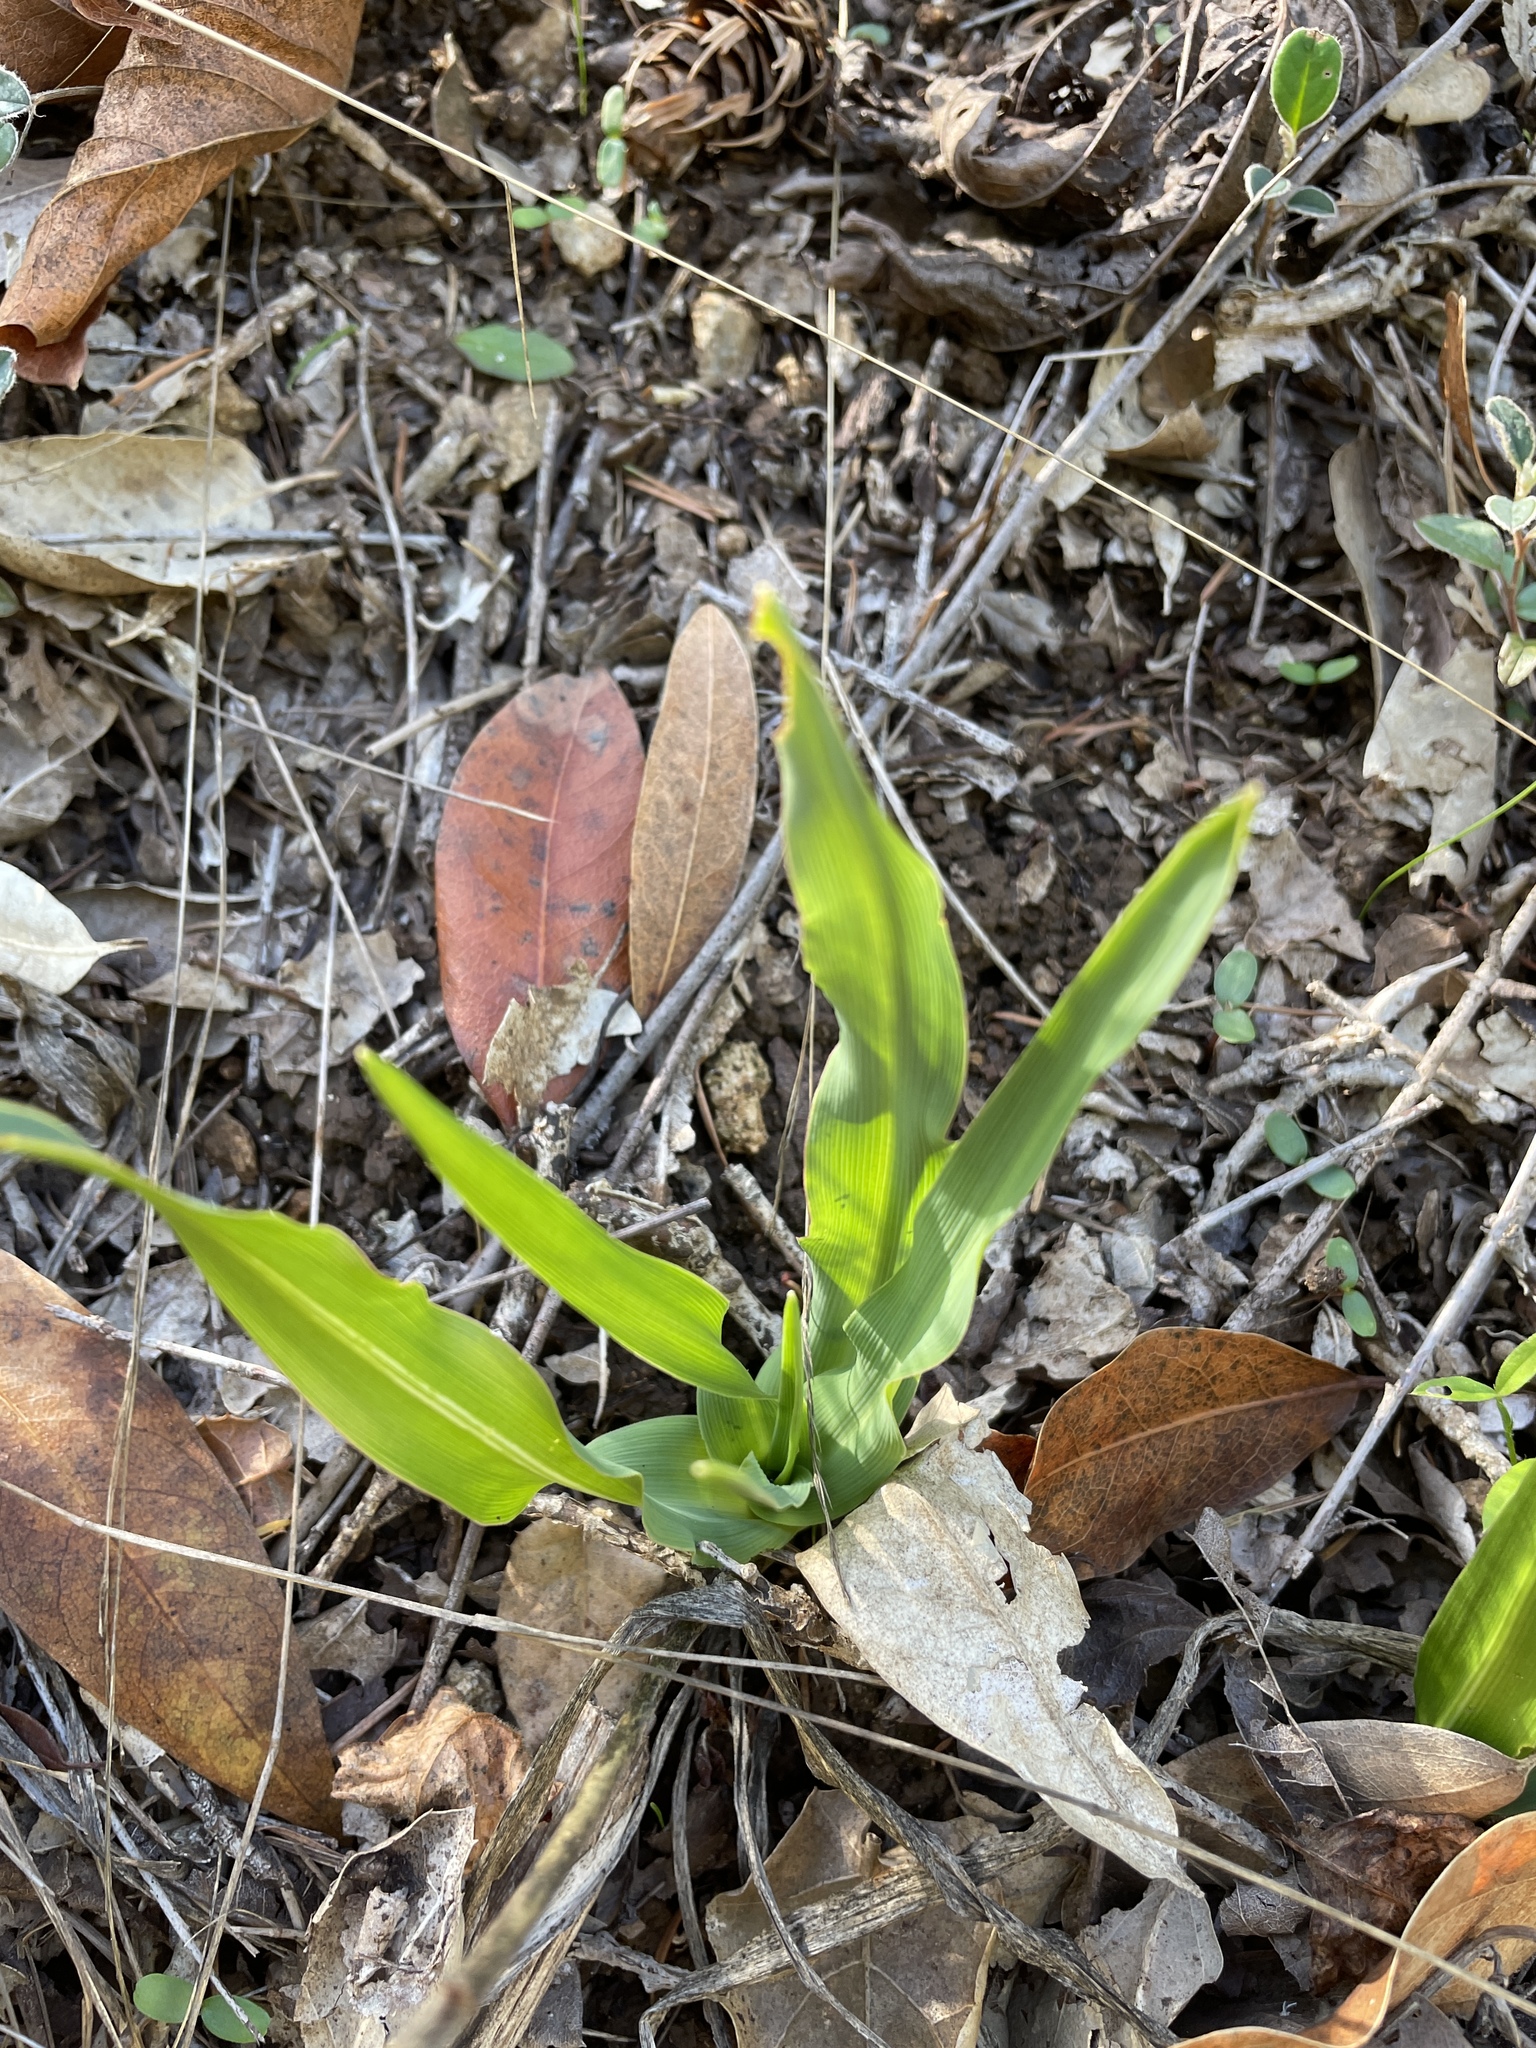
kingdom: Plantae
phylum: Tracheophyta
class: Liliopsida
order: Asparagales
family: Asparagaceae
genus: Chlorogalum
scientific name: Chlorogalum pomeridianum
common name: Amole
